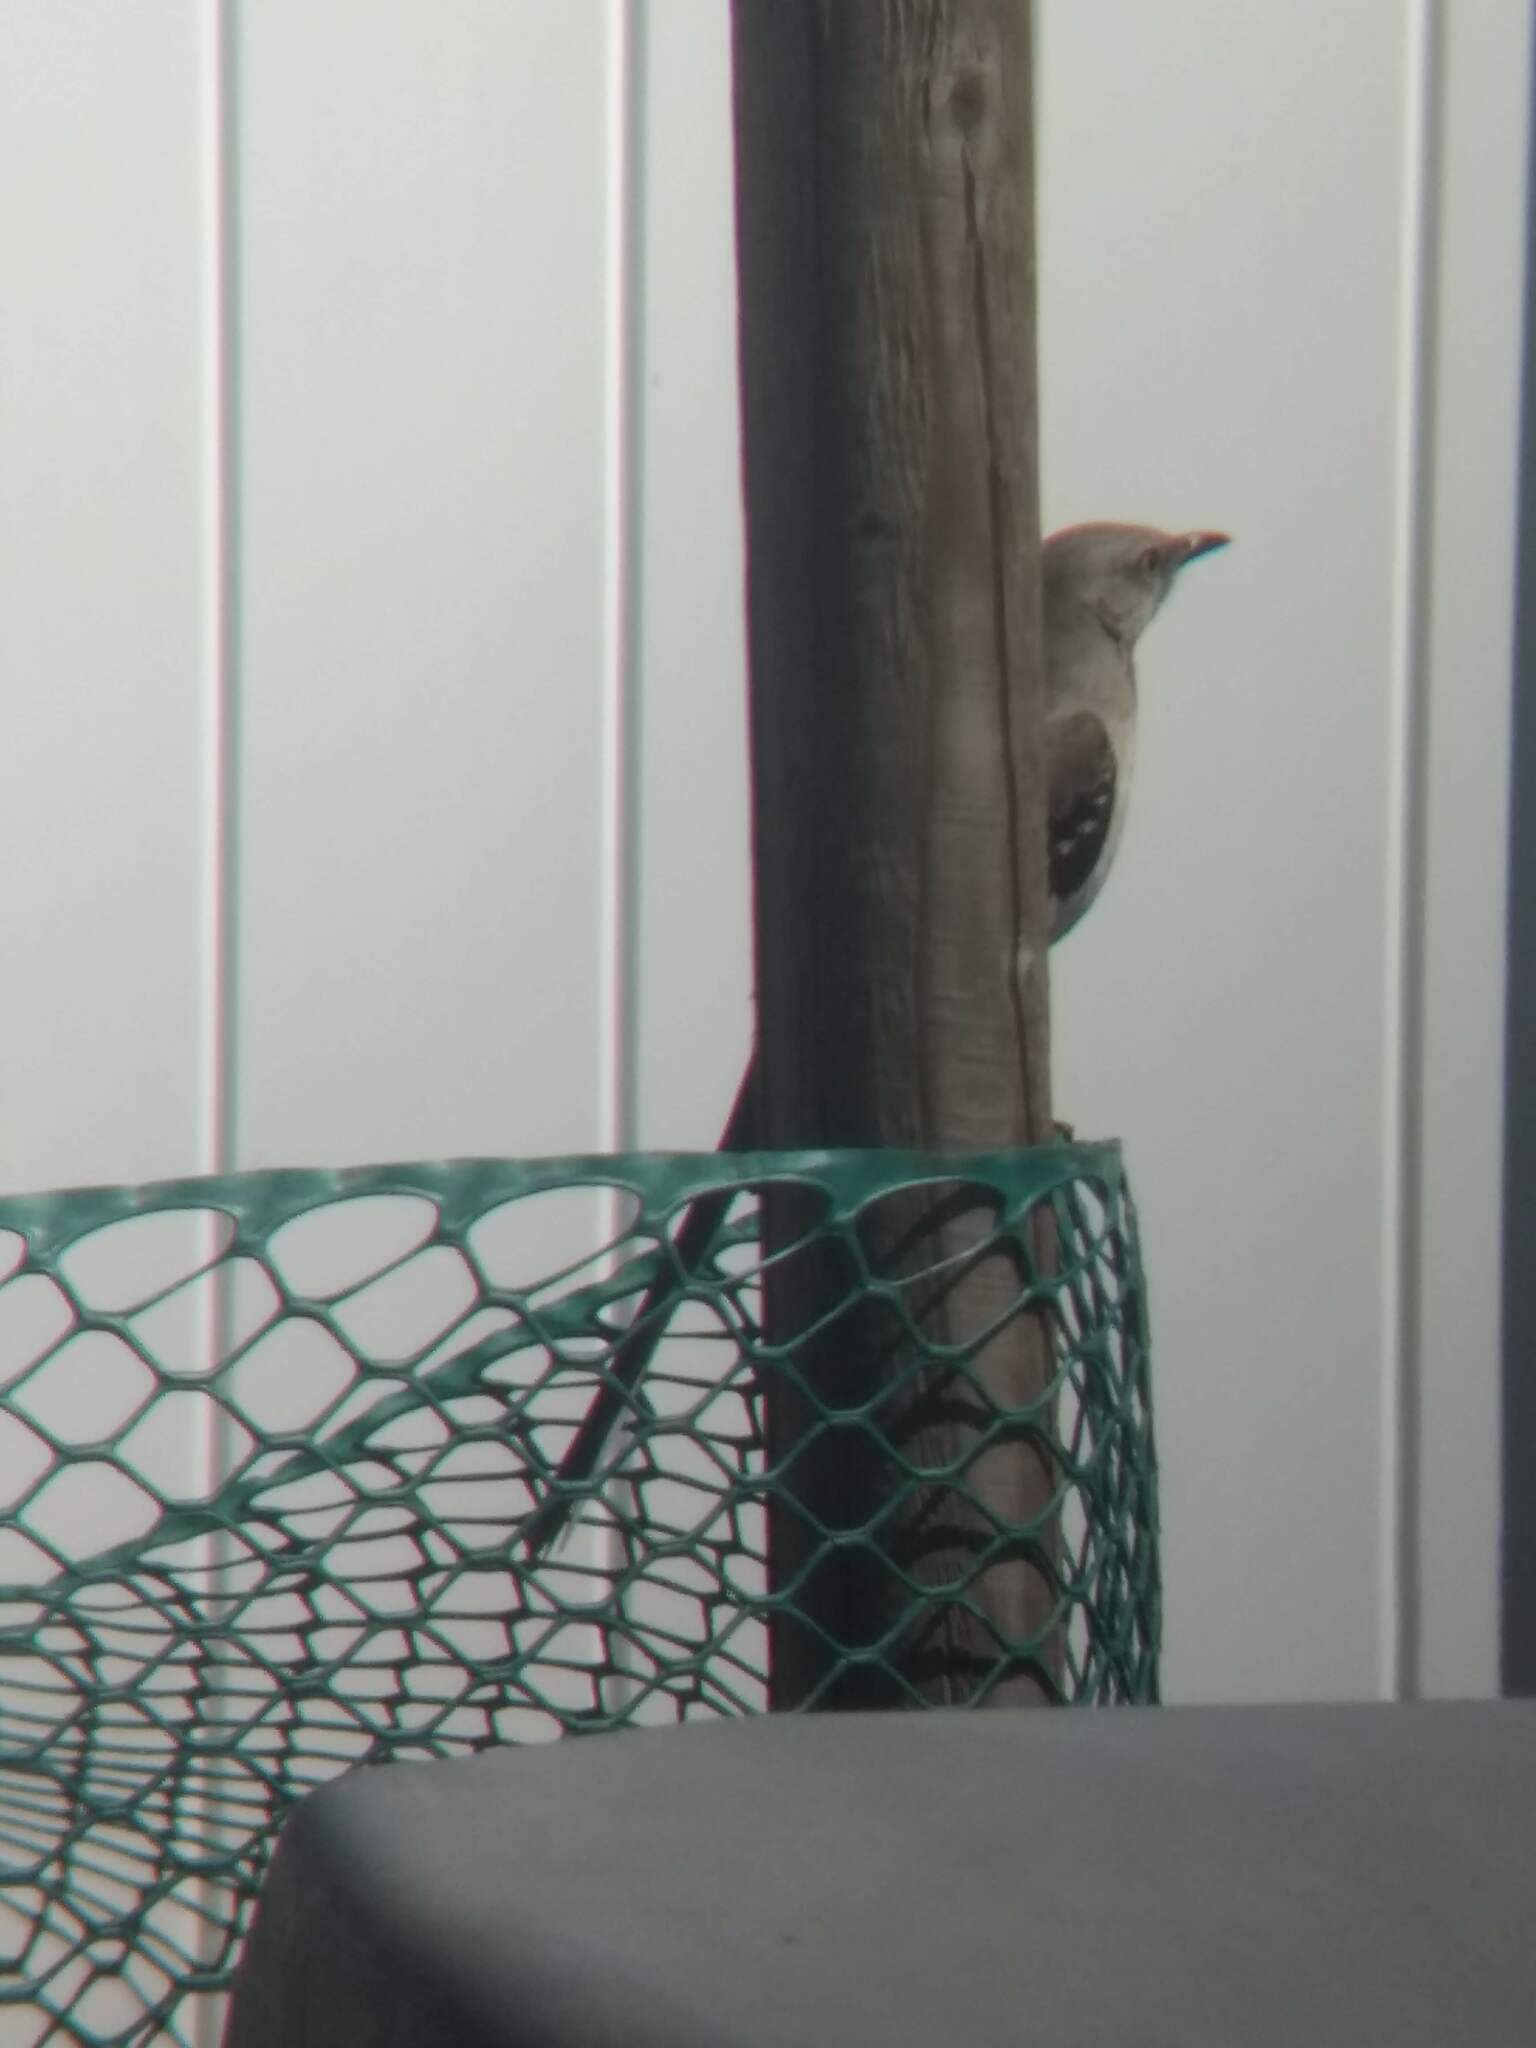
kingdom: Animalia
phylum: Chordata
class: Aves
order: Passeriformes
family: Mimidae
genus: Mimus
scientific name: Mimus polyglottos
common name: Northern mockingbird
